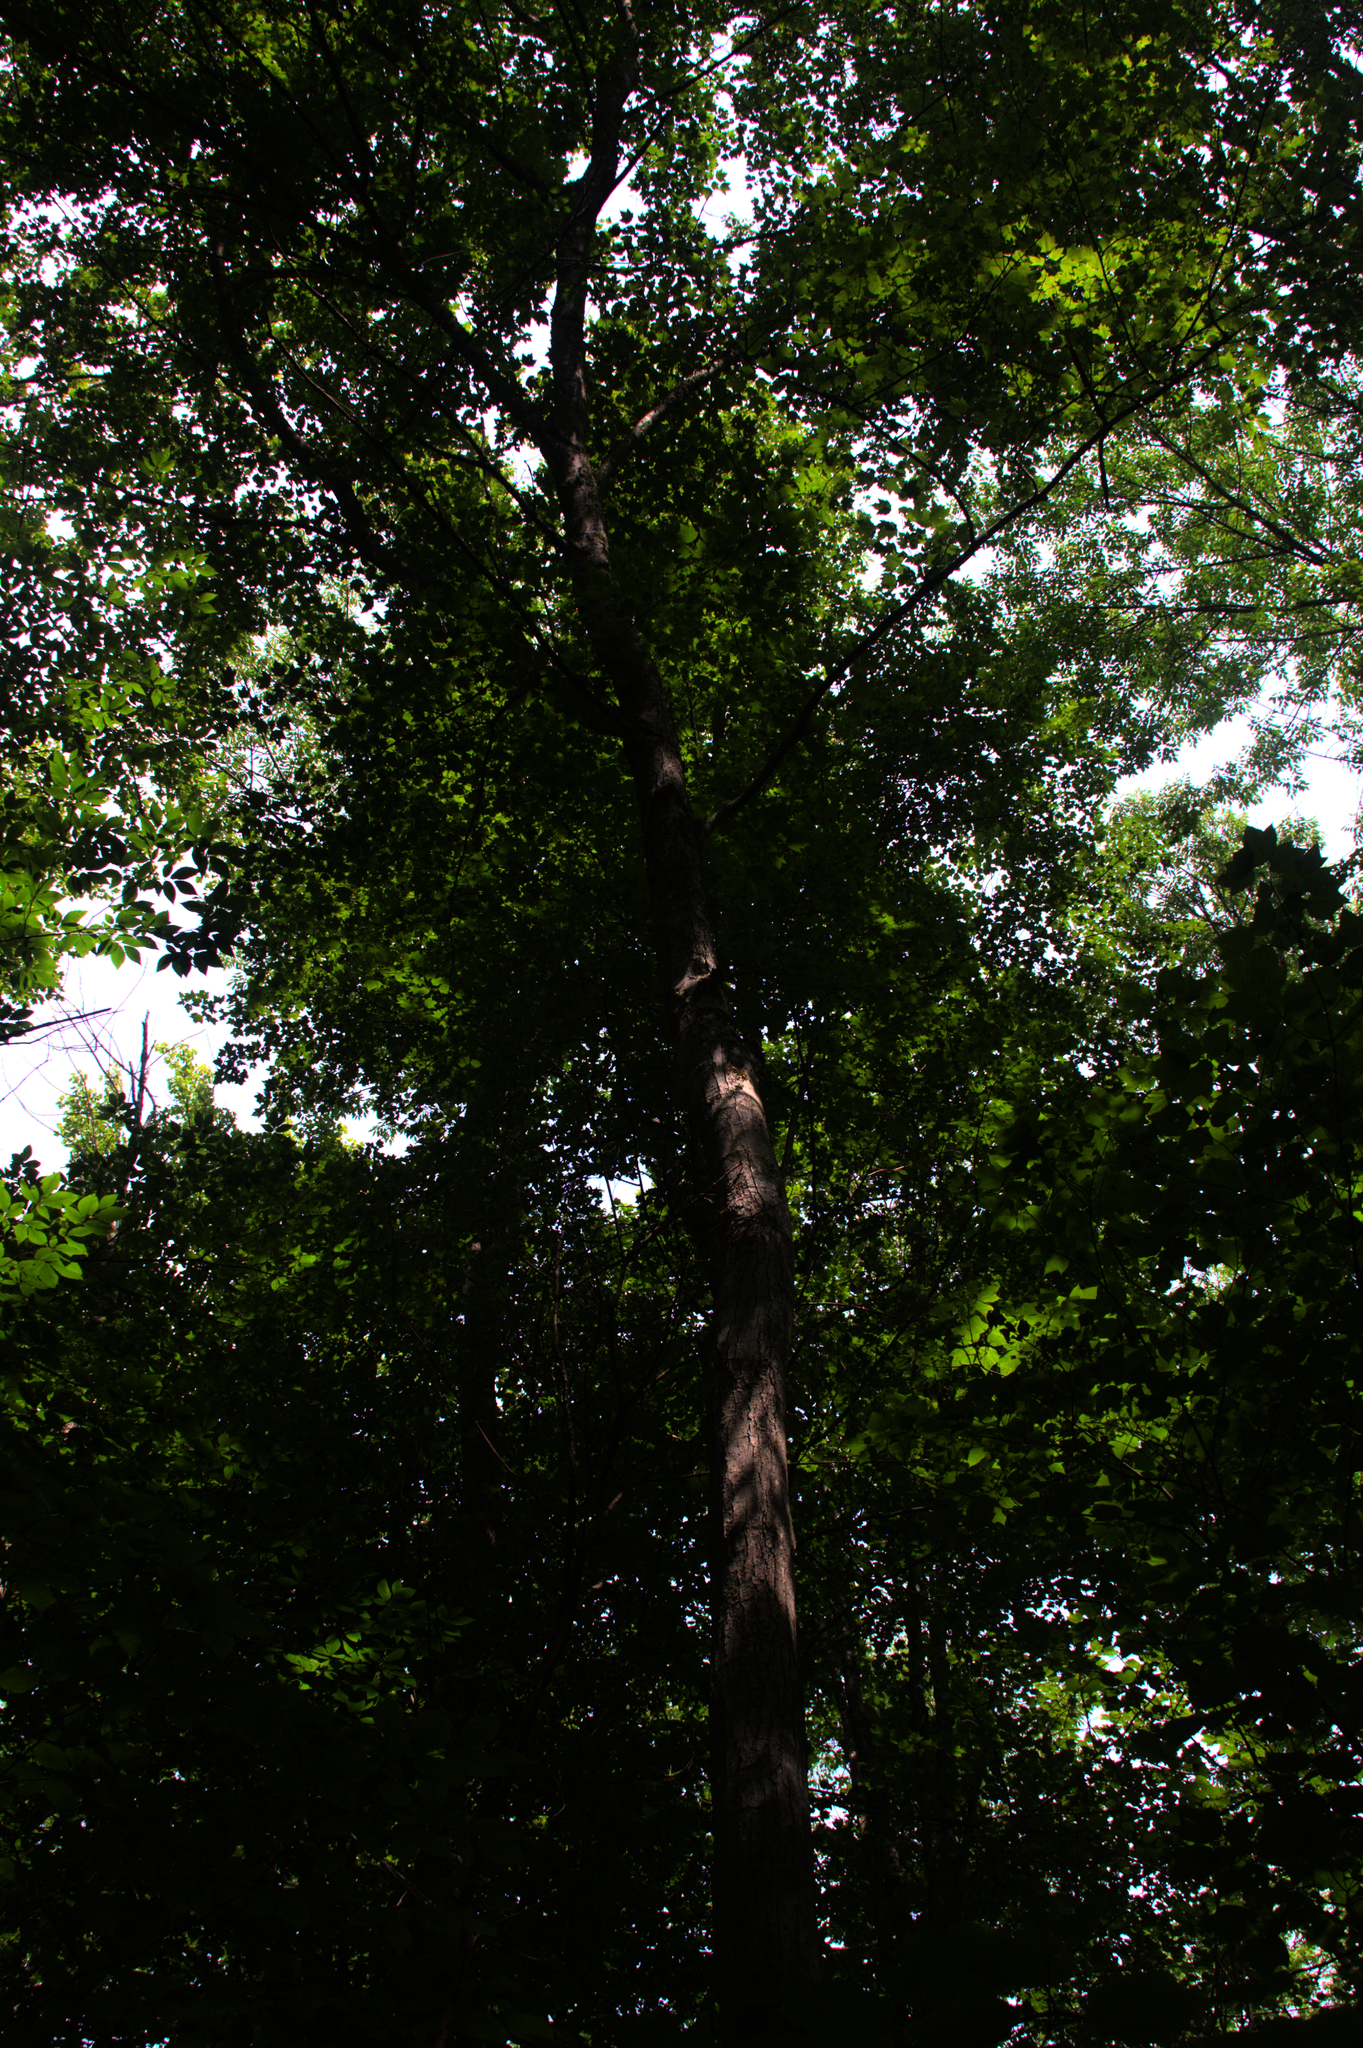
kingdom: Plantae
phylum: Tracheophyta
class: Magnoliopsida
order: Sapindales
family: Sapindaceae
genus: Acer
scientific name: Acer rubrum
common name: Red maple
